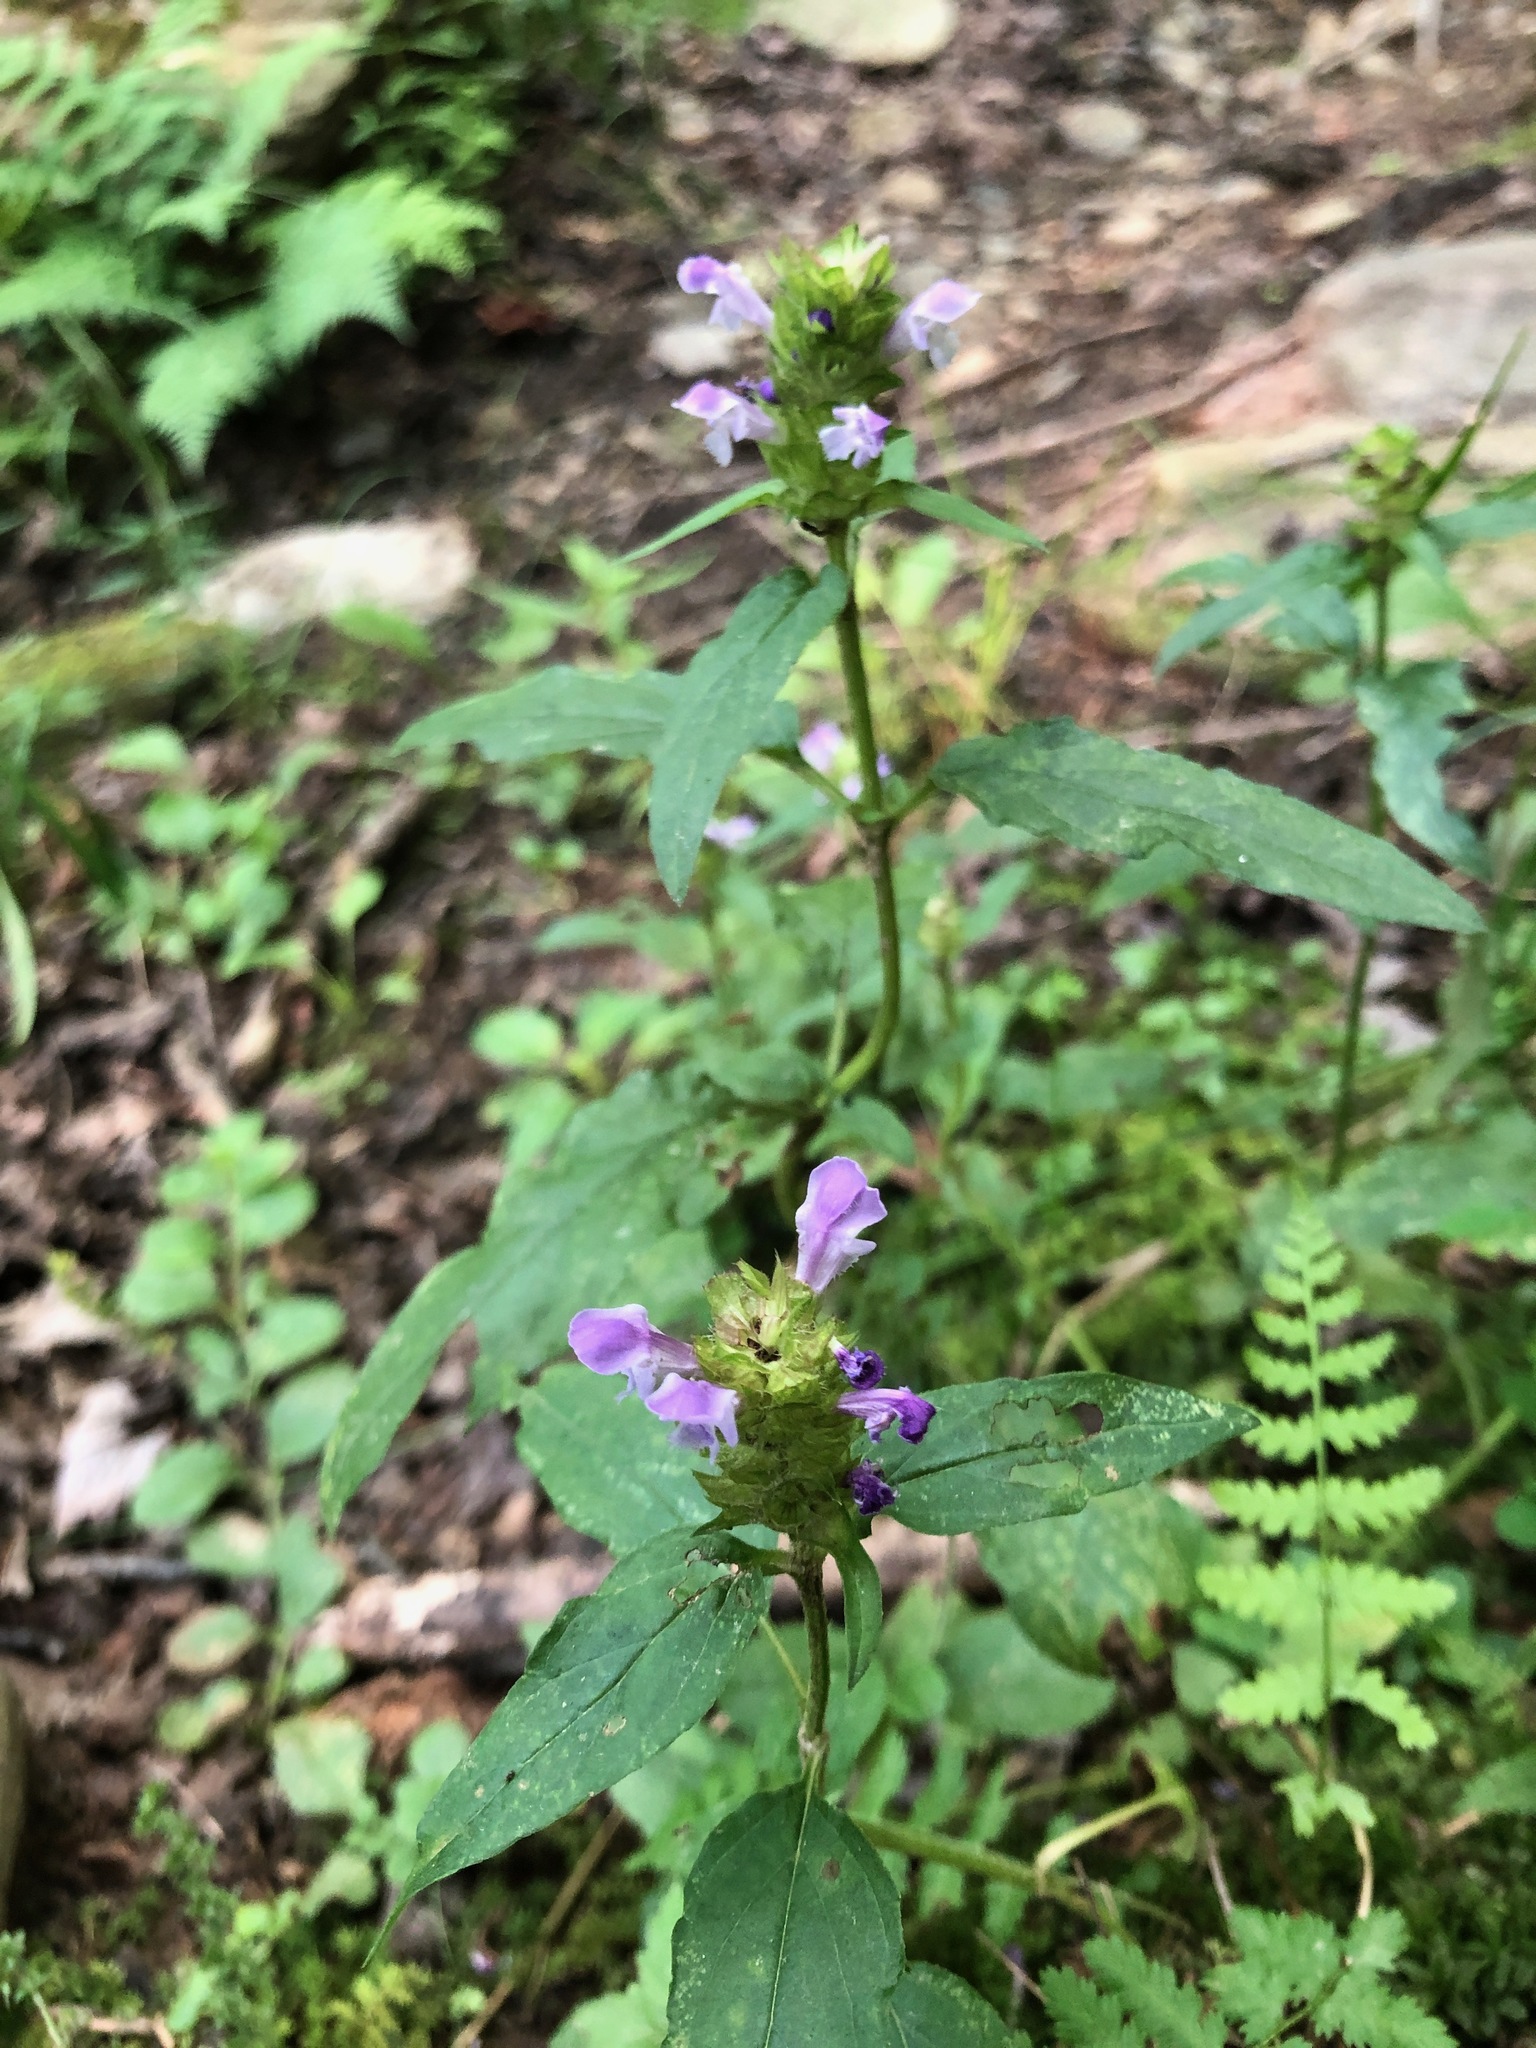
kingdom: Plantae
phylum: Tracheophyta
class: Magnoliopsida
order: Lamiales
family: Lamiaceae
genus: Prunella
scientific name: Prunella vulgaris
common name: Heal-all
